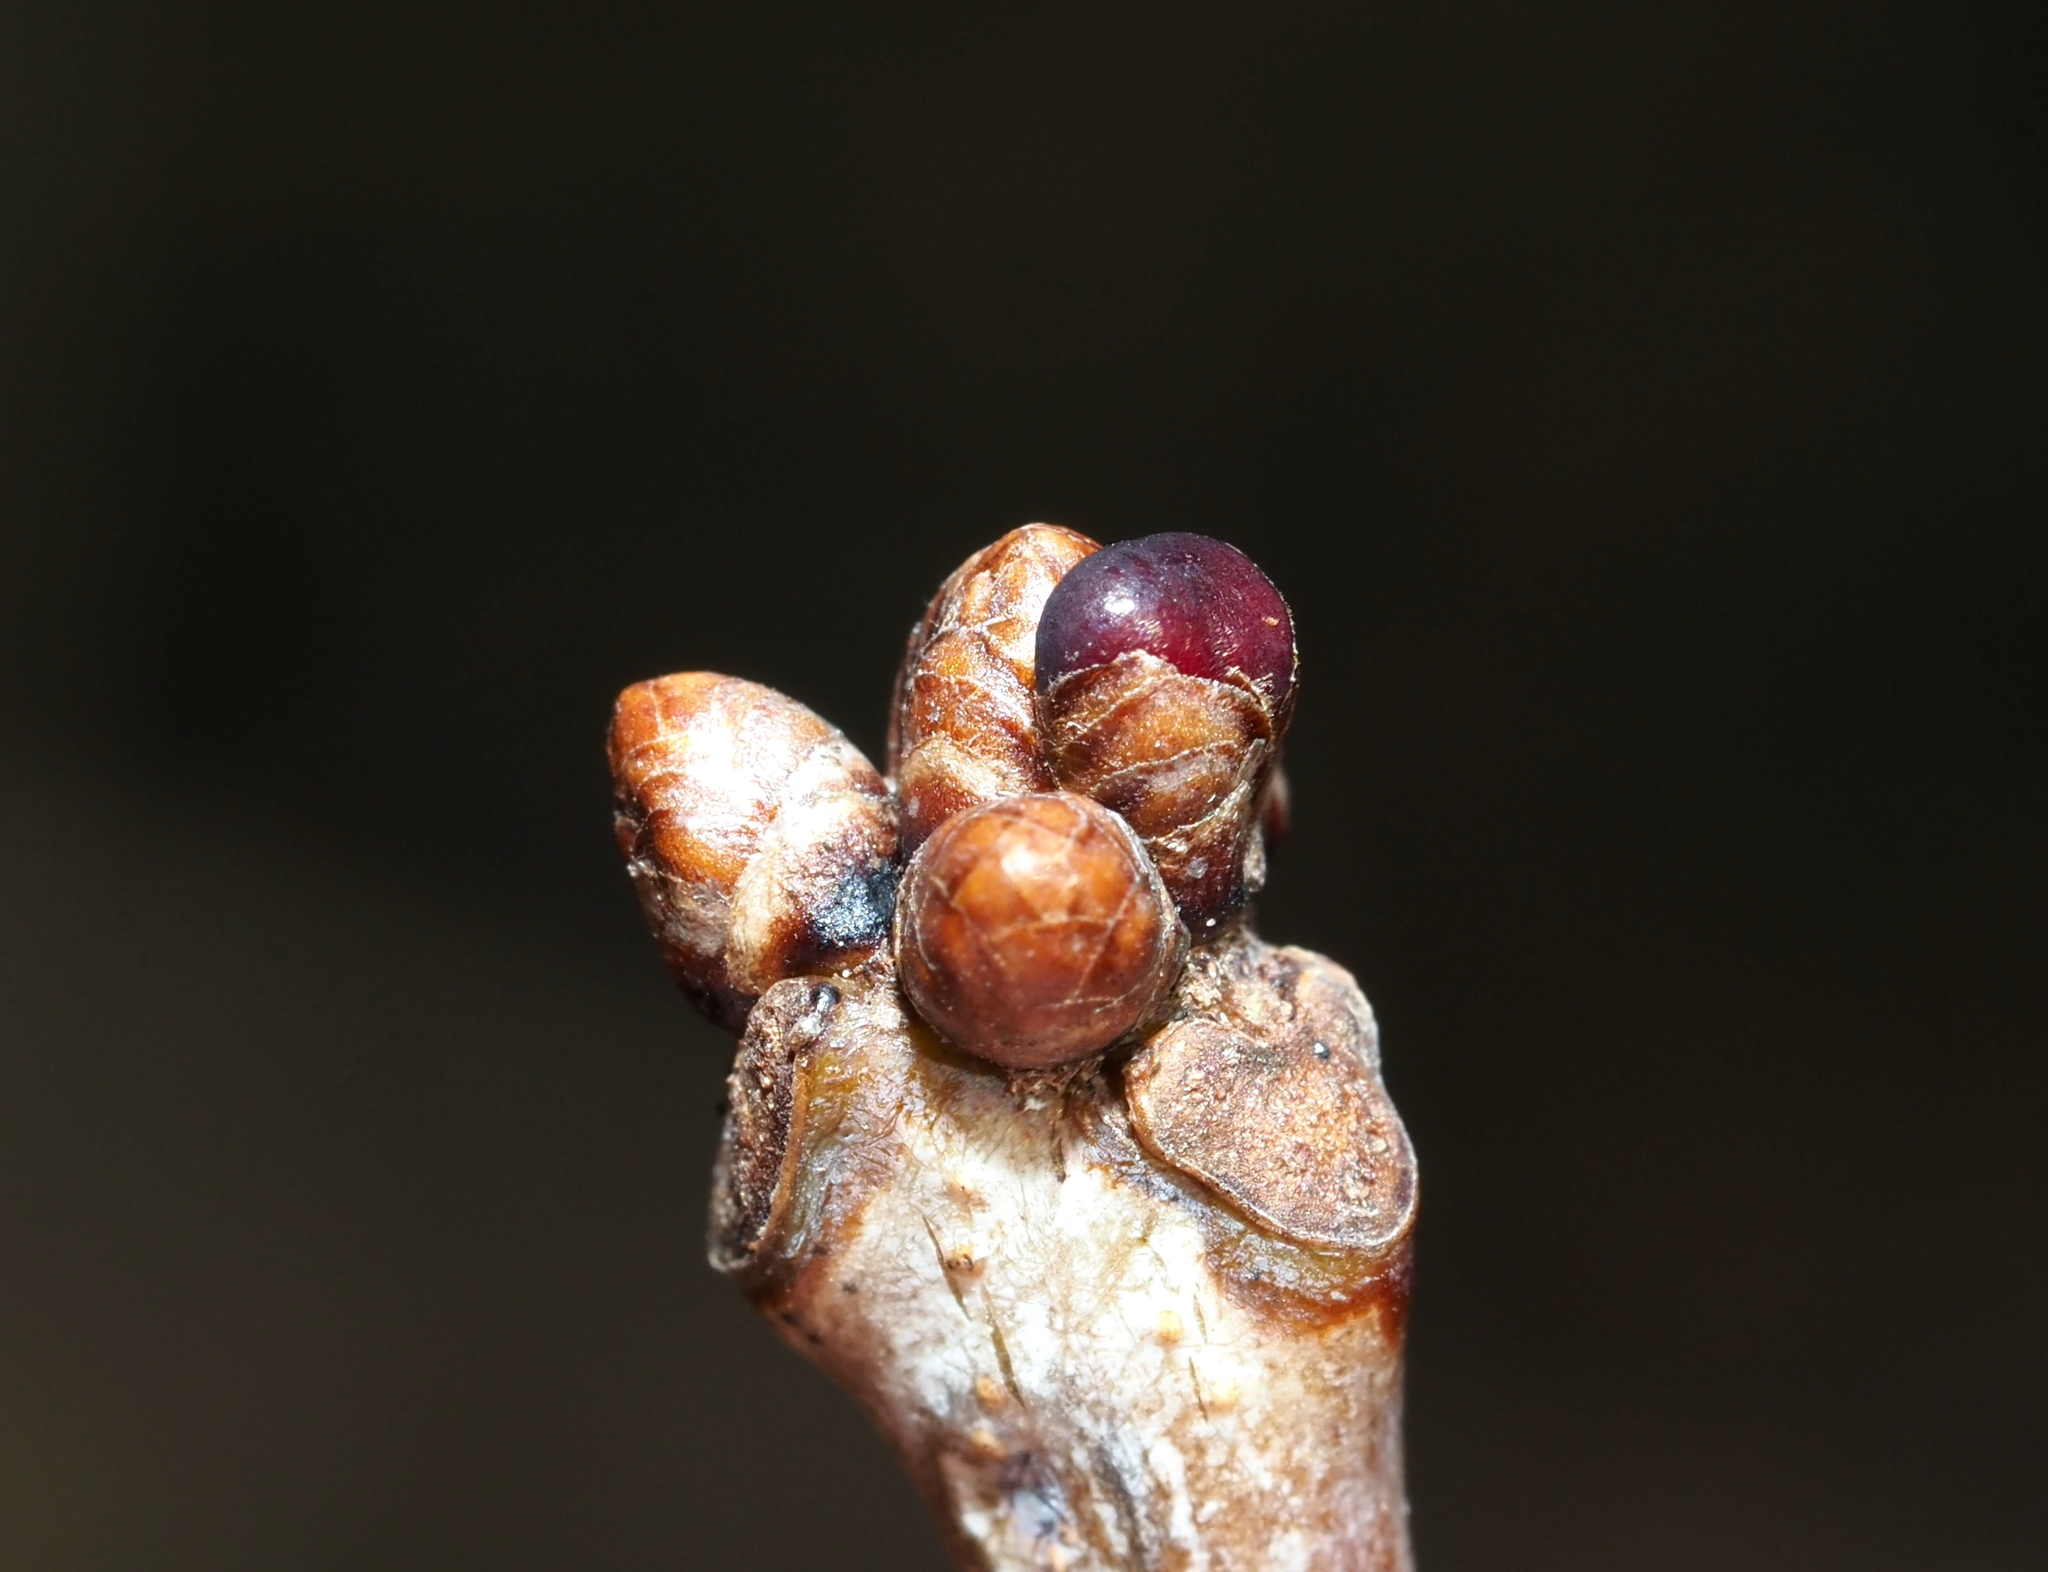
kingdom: Animalia
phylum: Arthropoda
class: Insecta
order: Hymenoptera
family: Cynipidae
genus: Neuroterus
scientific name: Neuroterus
